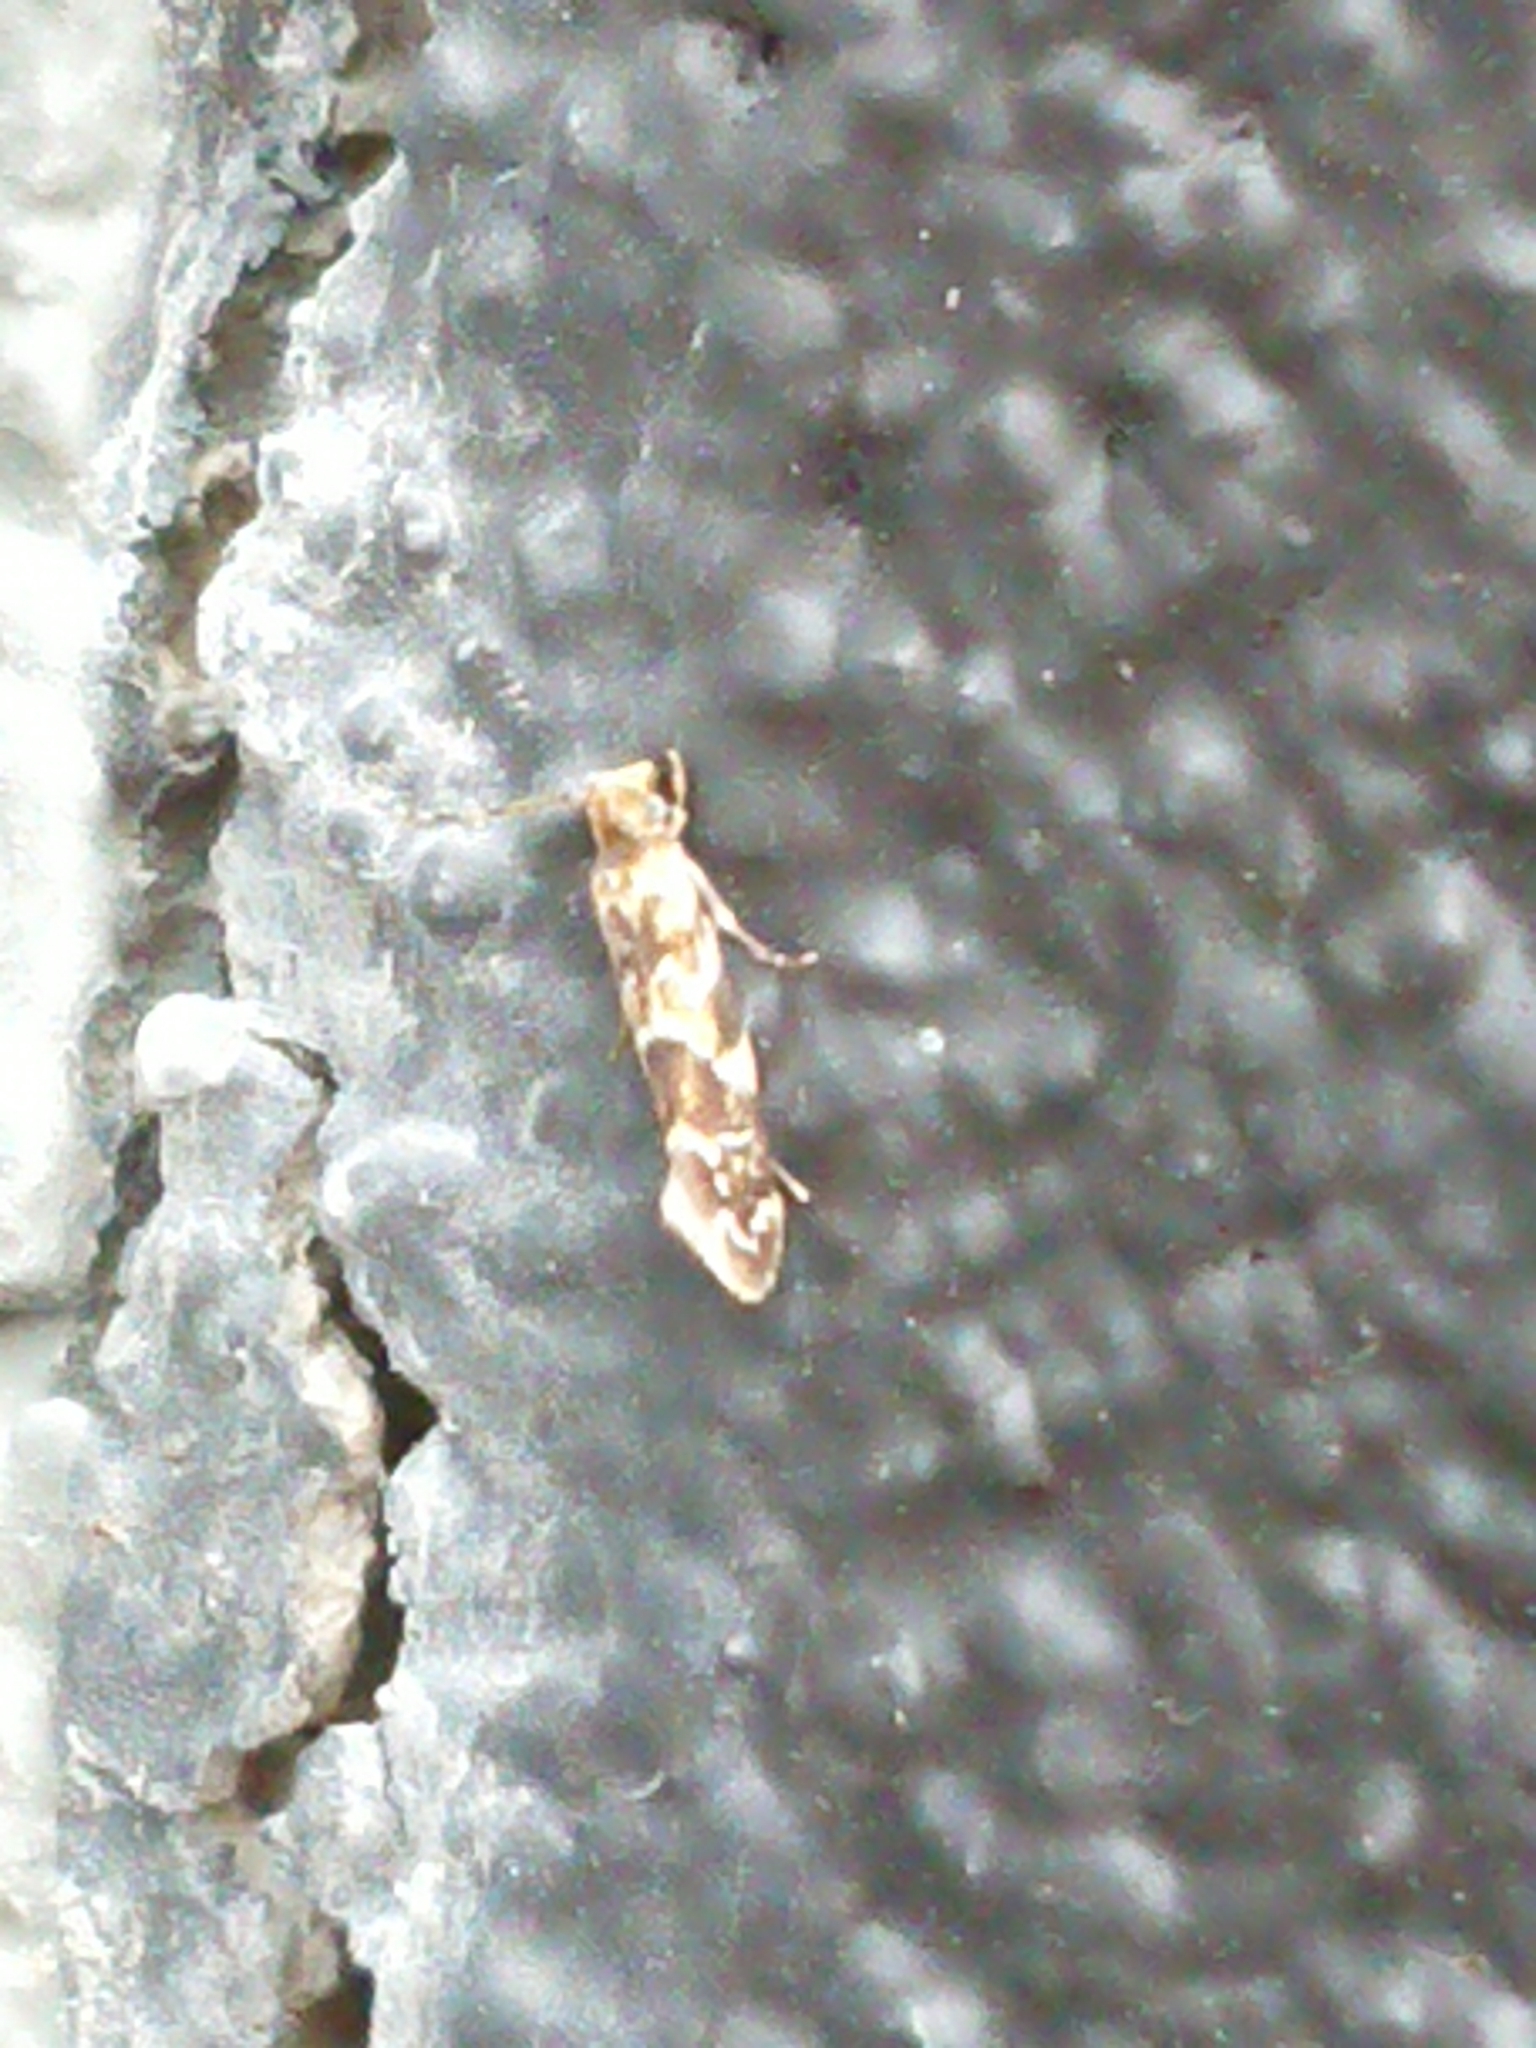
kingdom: Animalia
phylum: Arthropoda
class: Insecta
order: Lepidoptera
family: Dryadaulidae
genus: Dryadaula
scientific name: Dryadaula pactolia
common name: Cellar clothes
